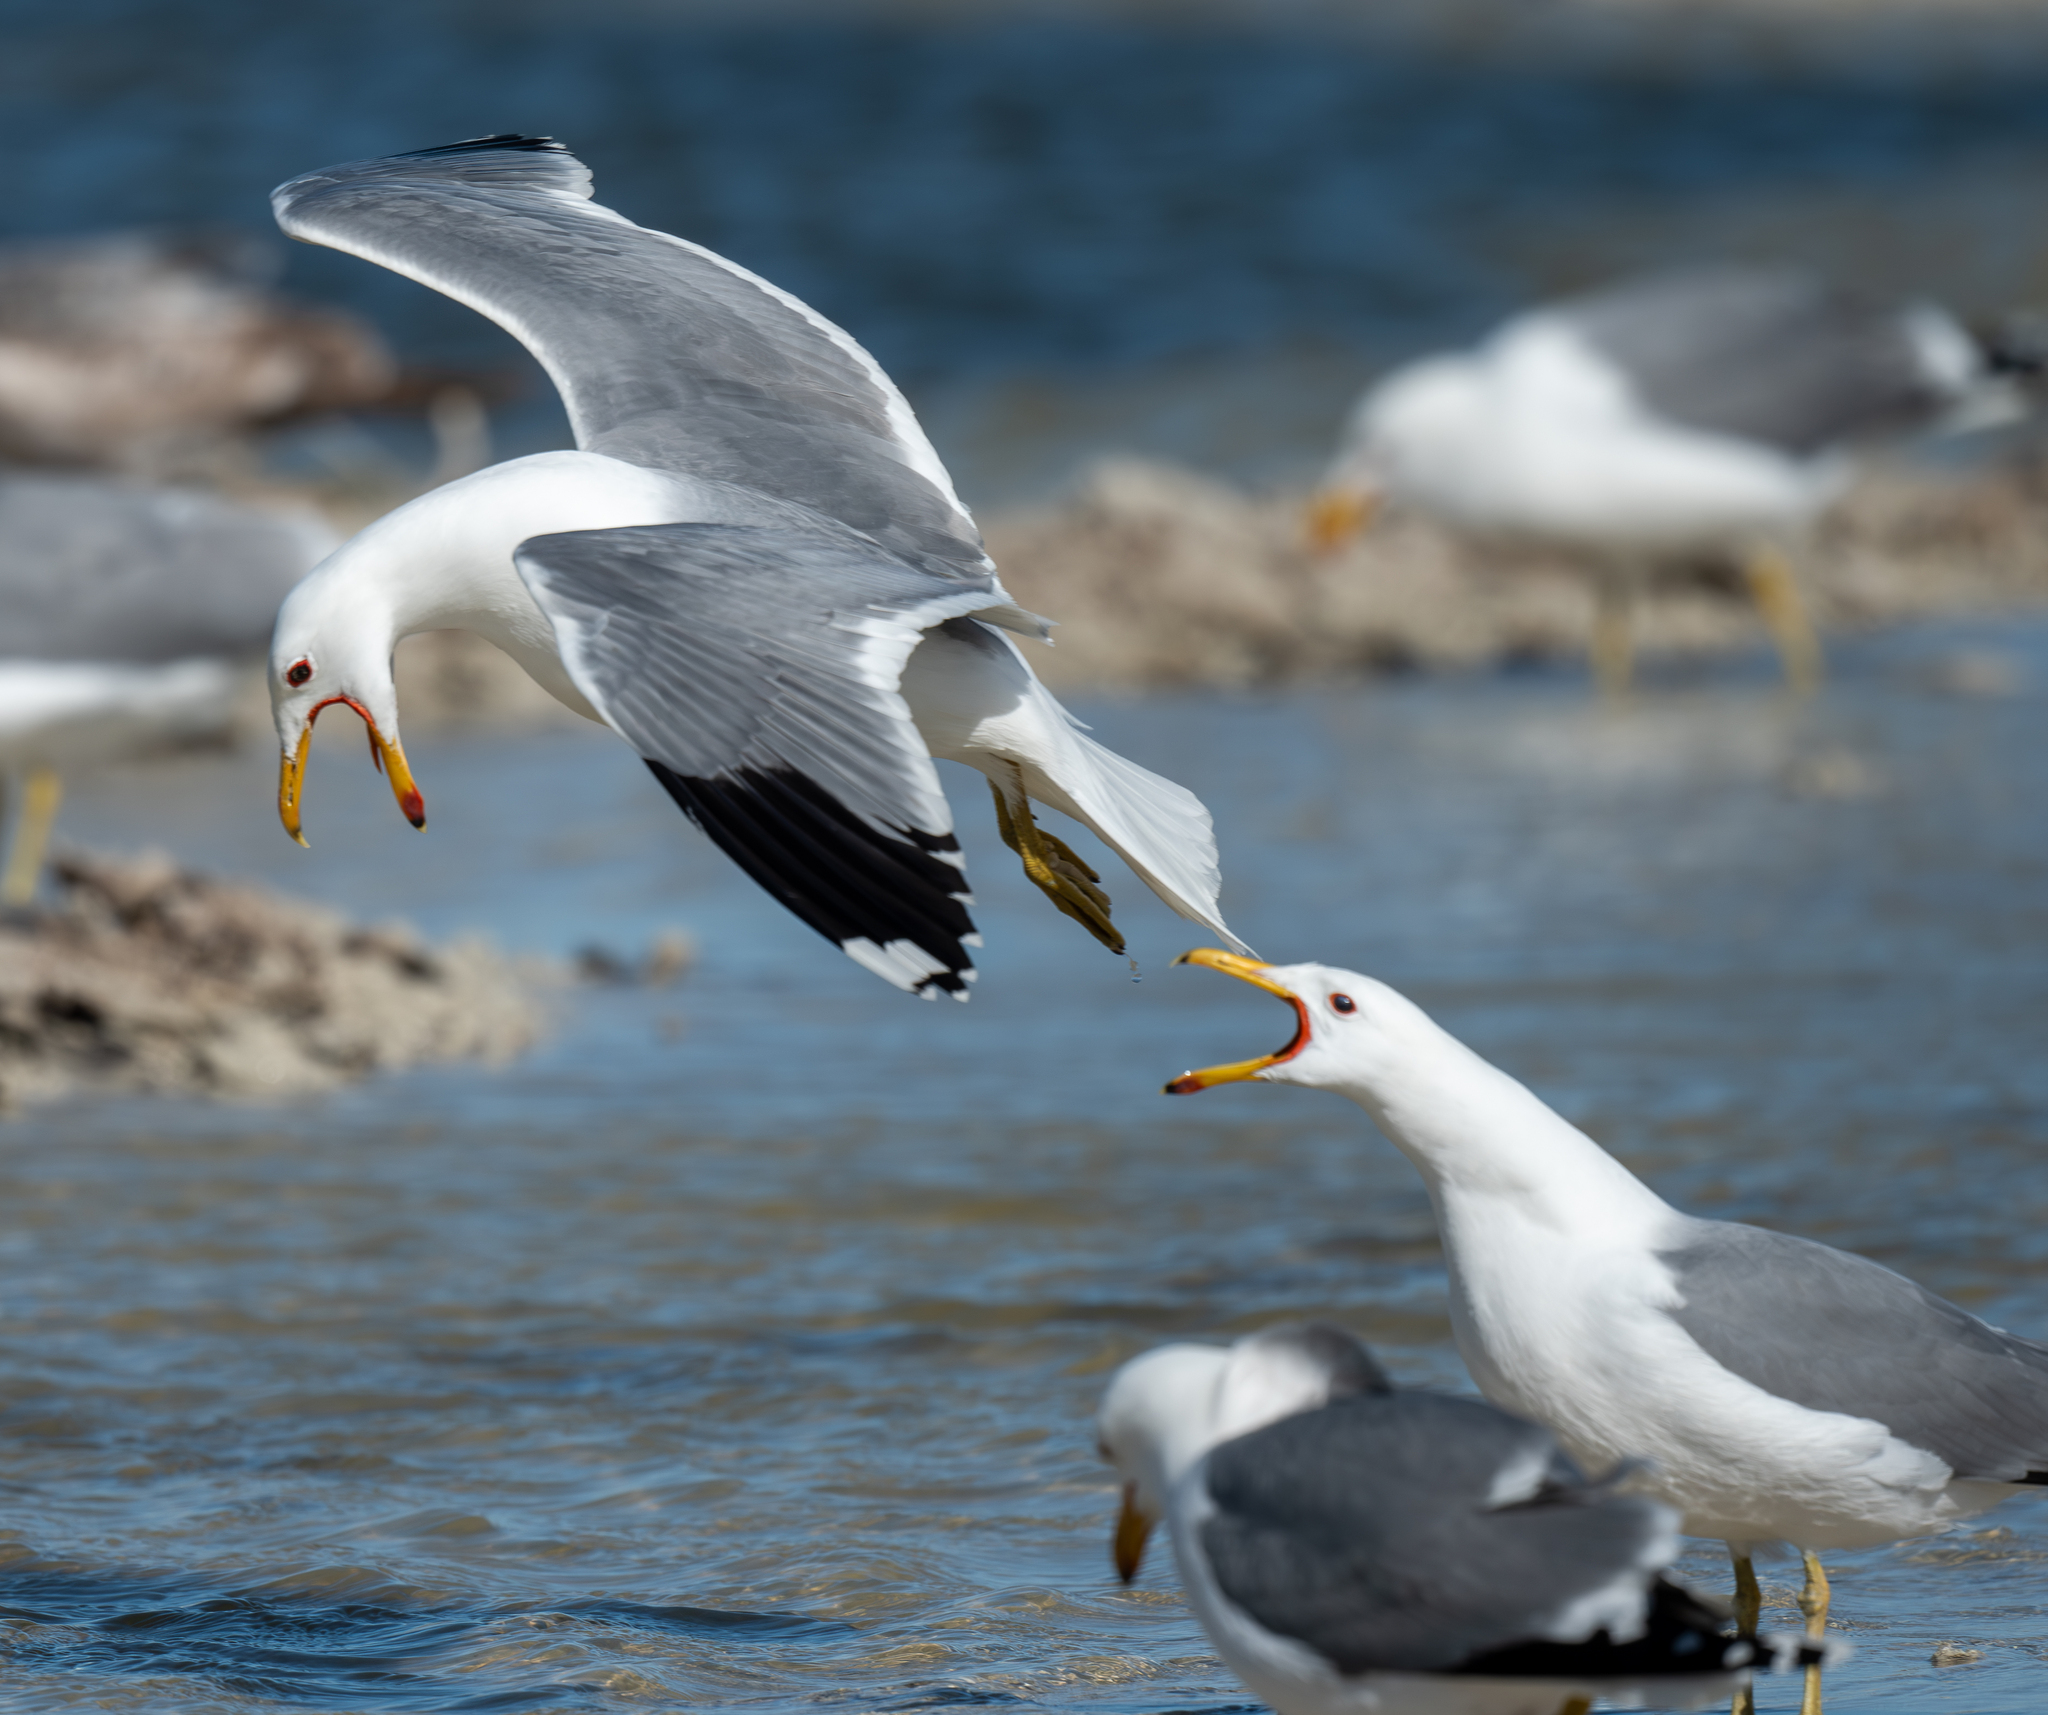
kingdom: Animalia
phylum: Chordata
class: Aves
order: Charadriiformes
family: Laridae
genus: Larus
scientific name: Larus californicus
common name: California gull
